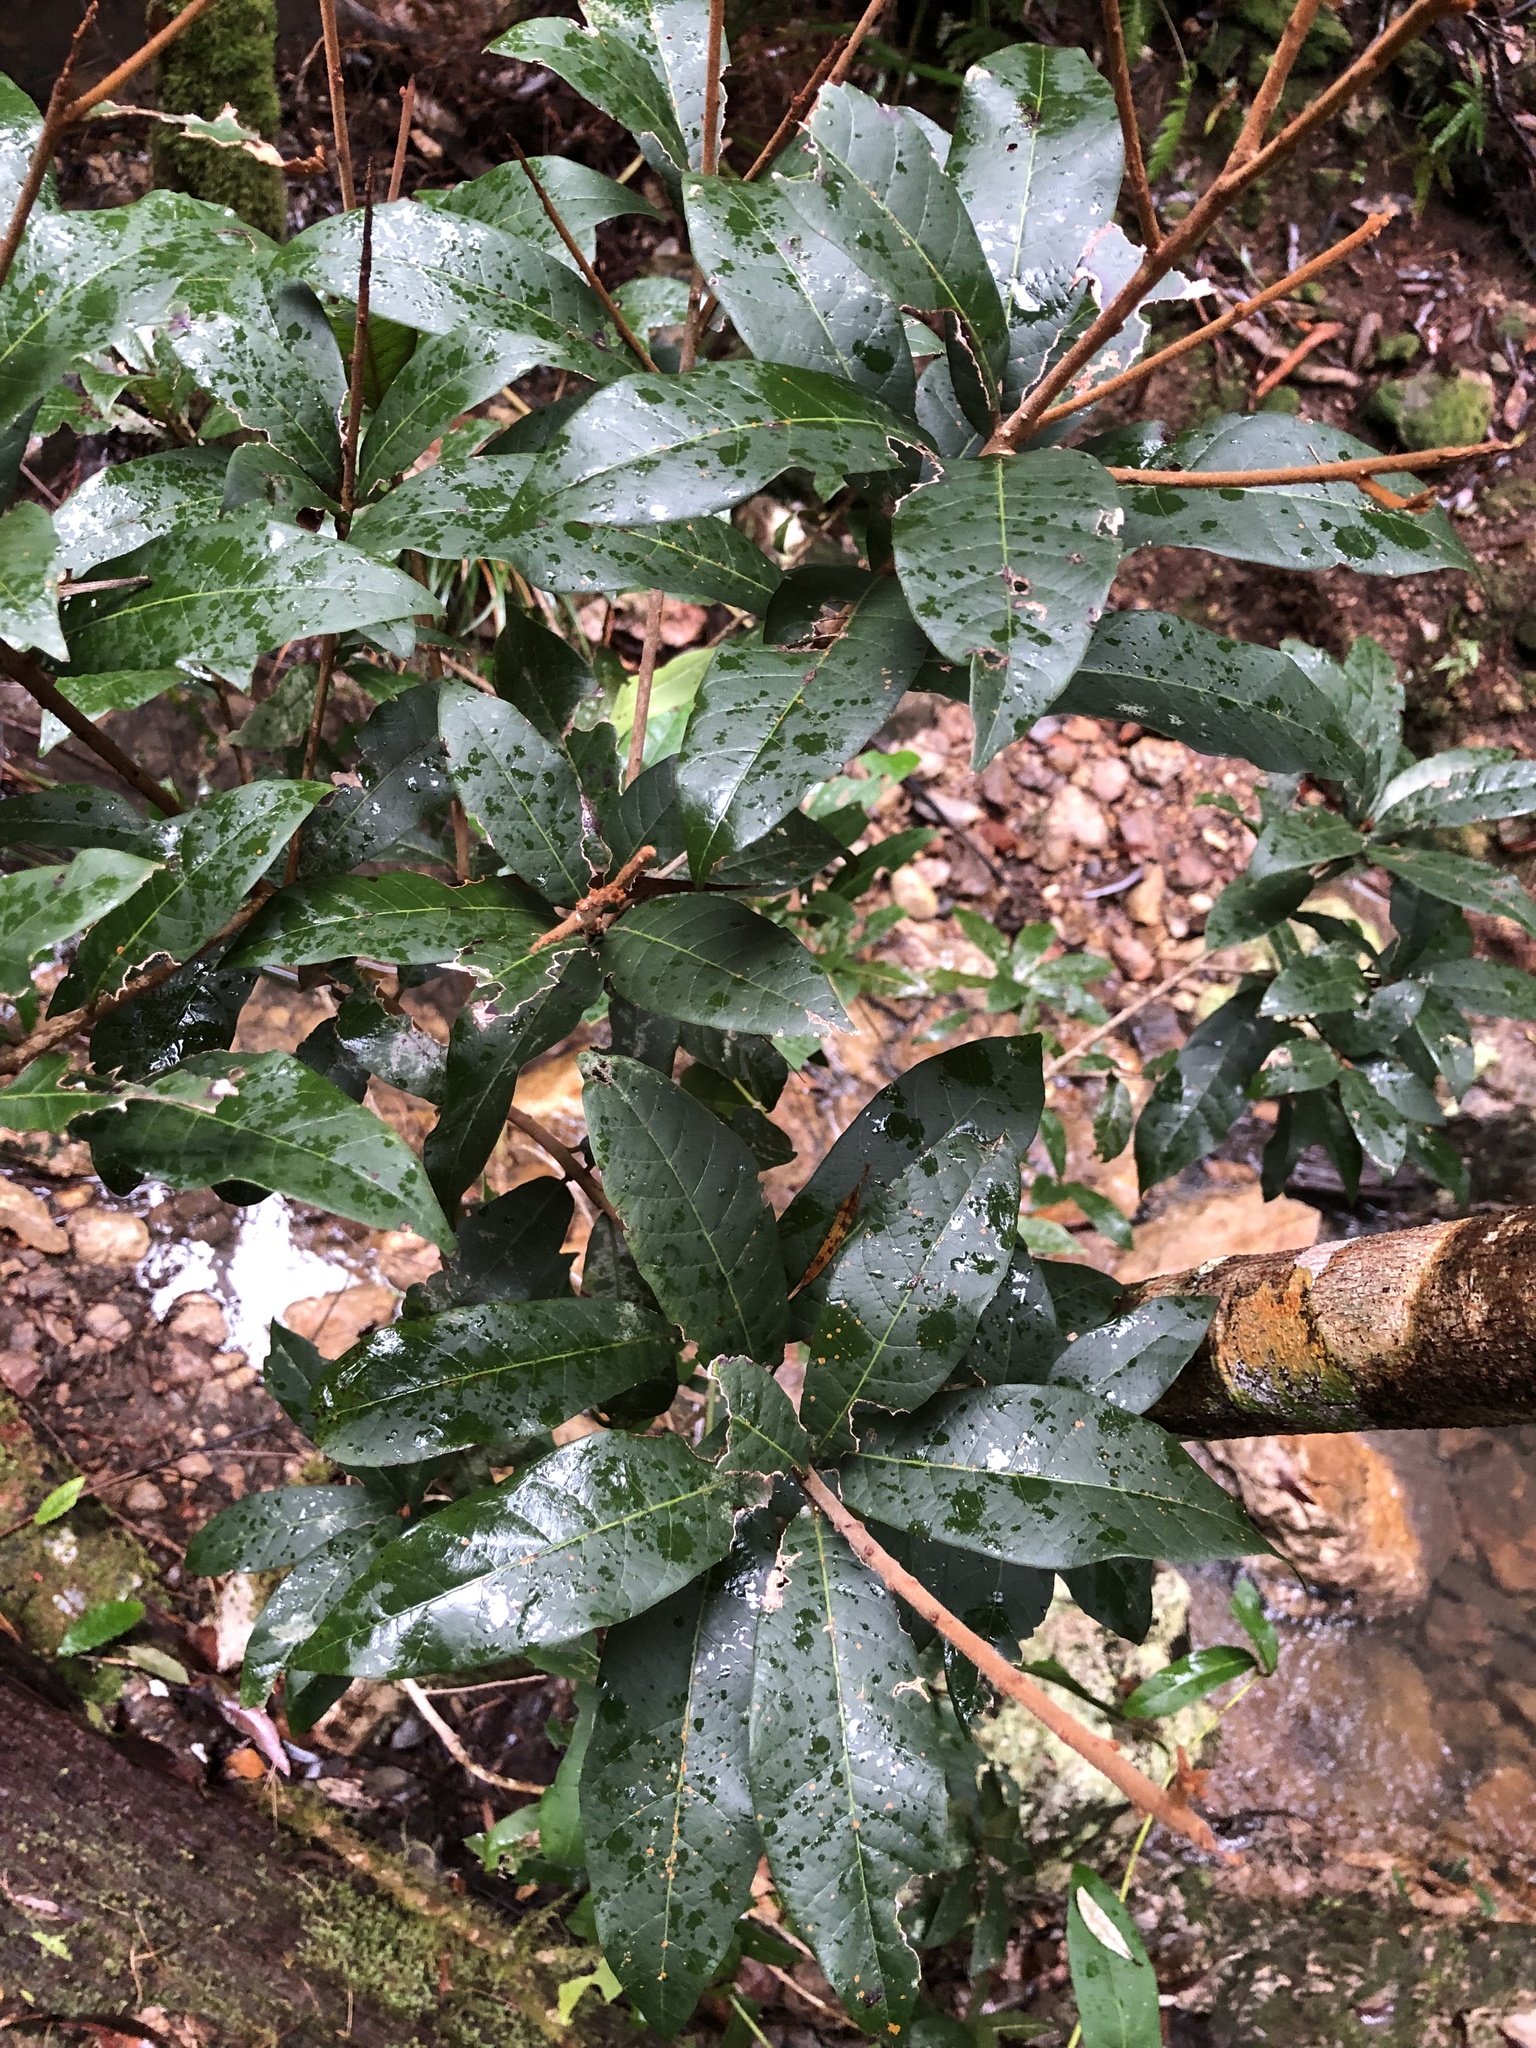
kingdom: Plantae
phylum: Tracheophyta
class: Magnoliopsida
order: Ericales
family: Sapotaceae
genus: Niemeyera
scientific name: Niemeyera whitei
